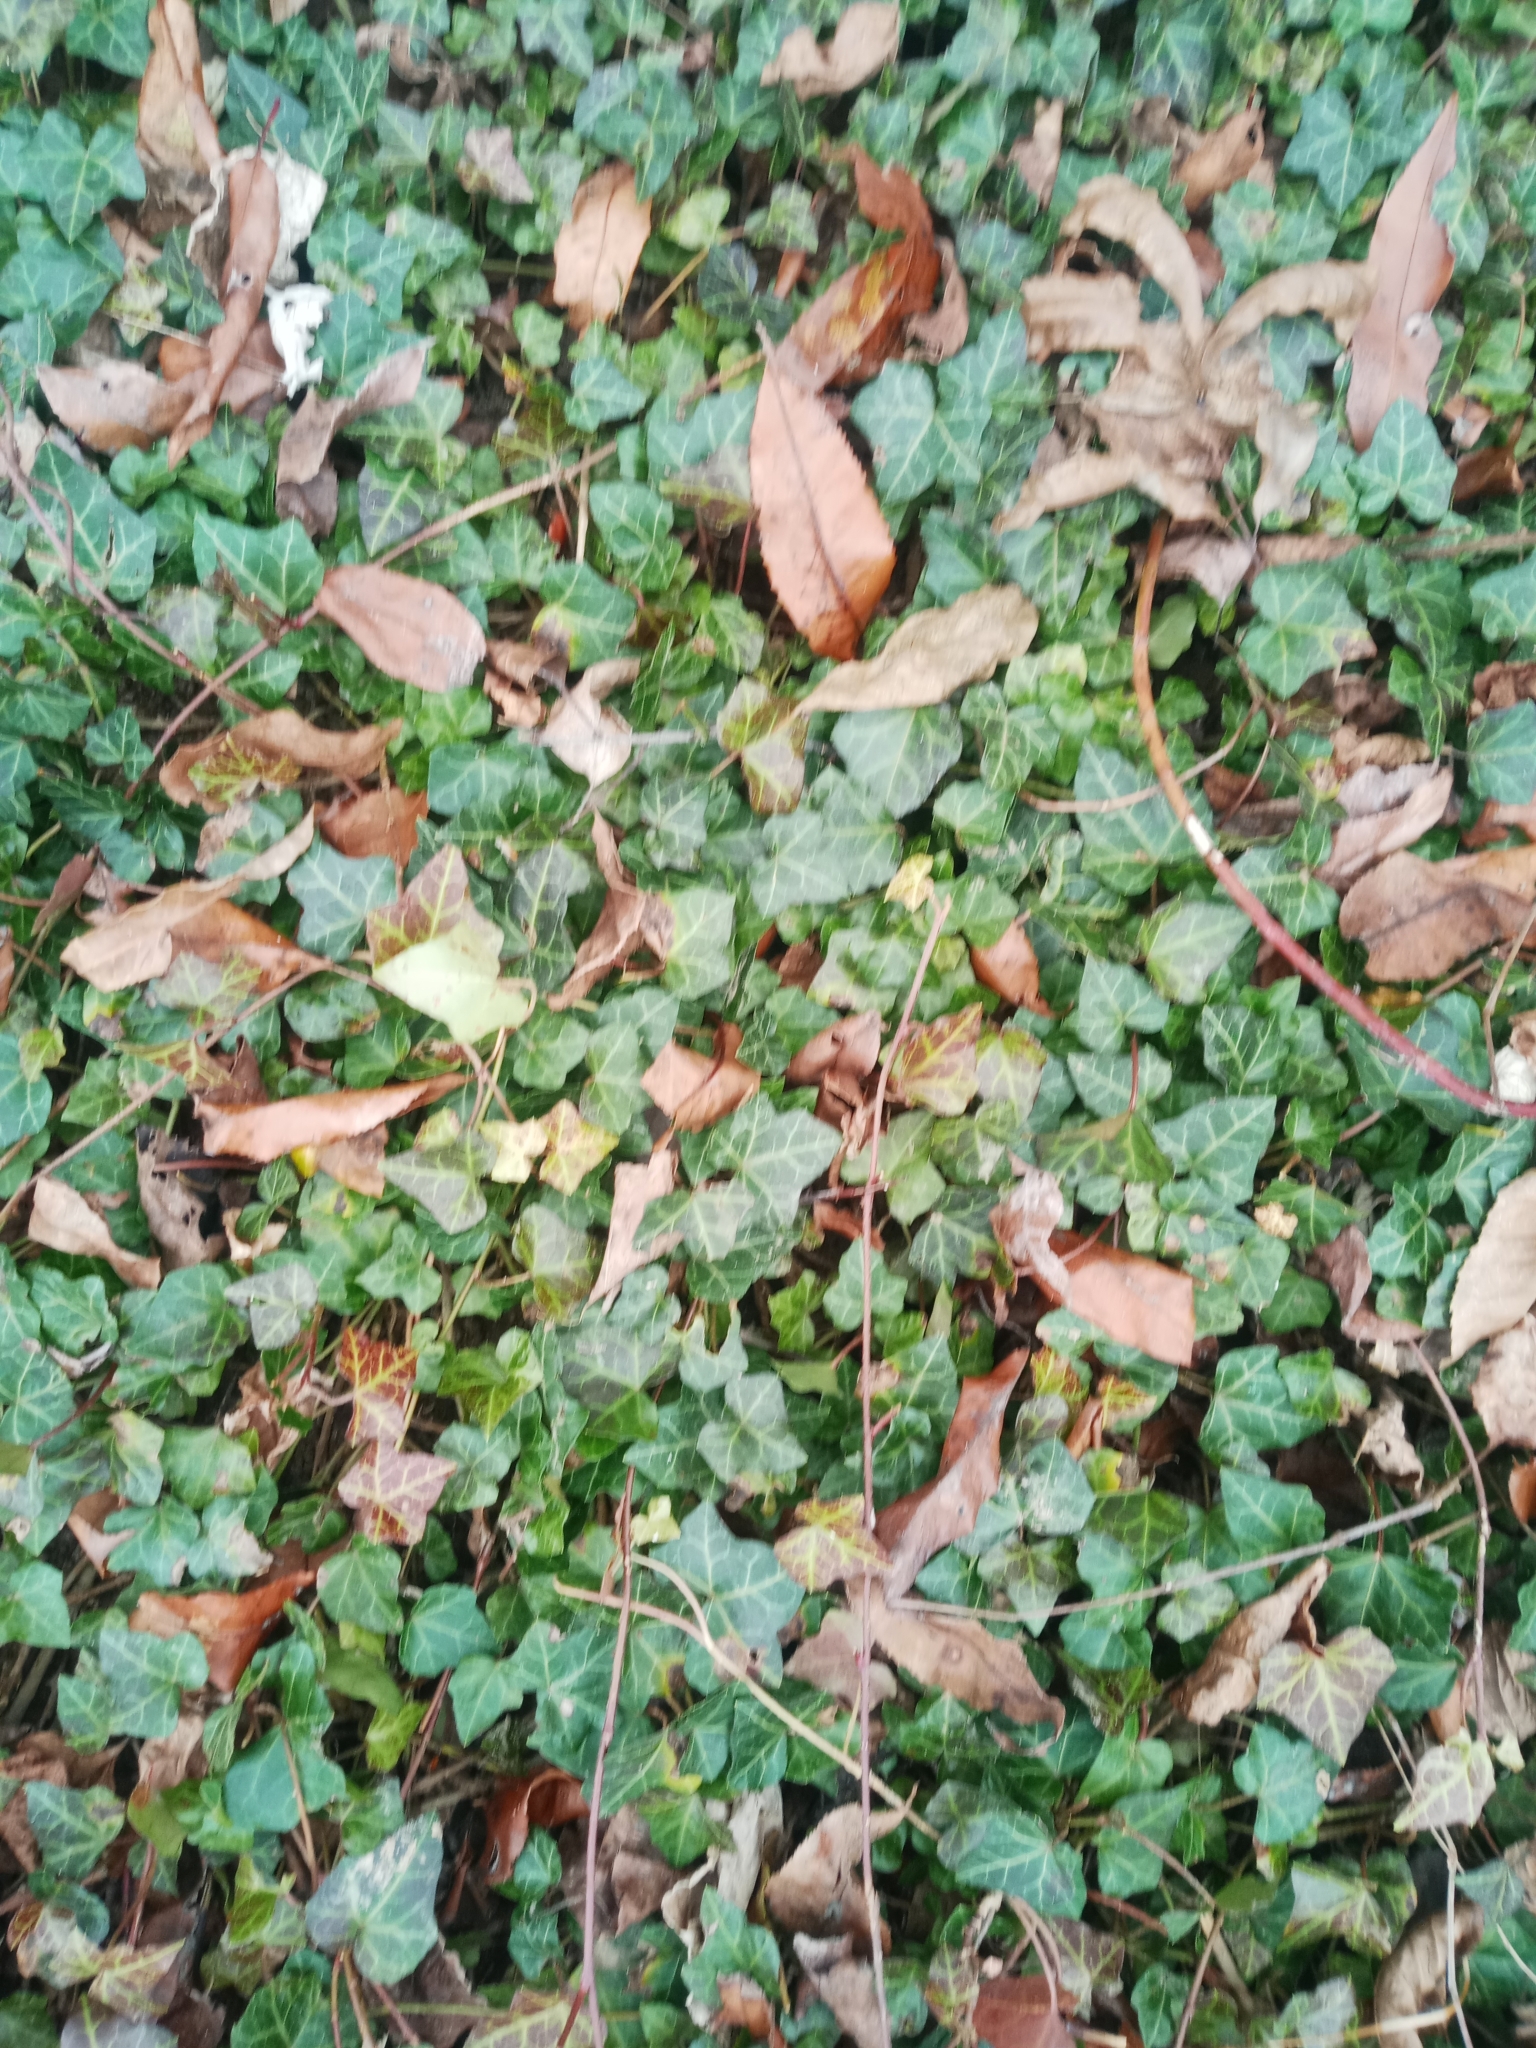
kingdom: Plantae
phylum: Tracheophyta
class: Magnoliopsida
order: Apiales
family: Araliaceae
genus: Hedera
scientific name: Hedera helix
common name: Ivy
